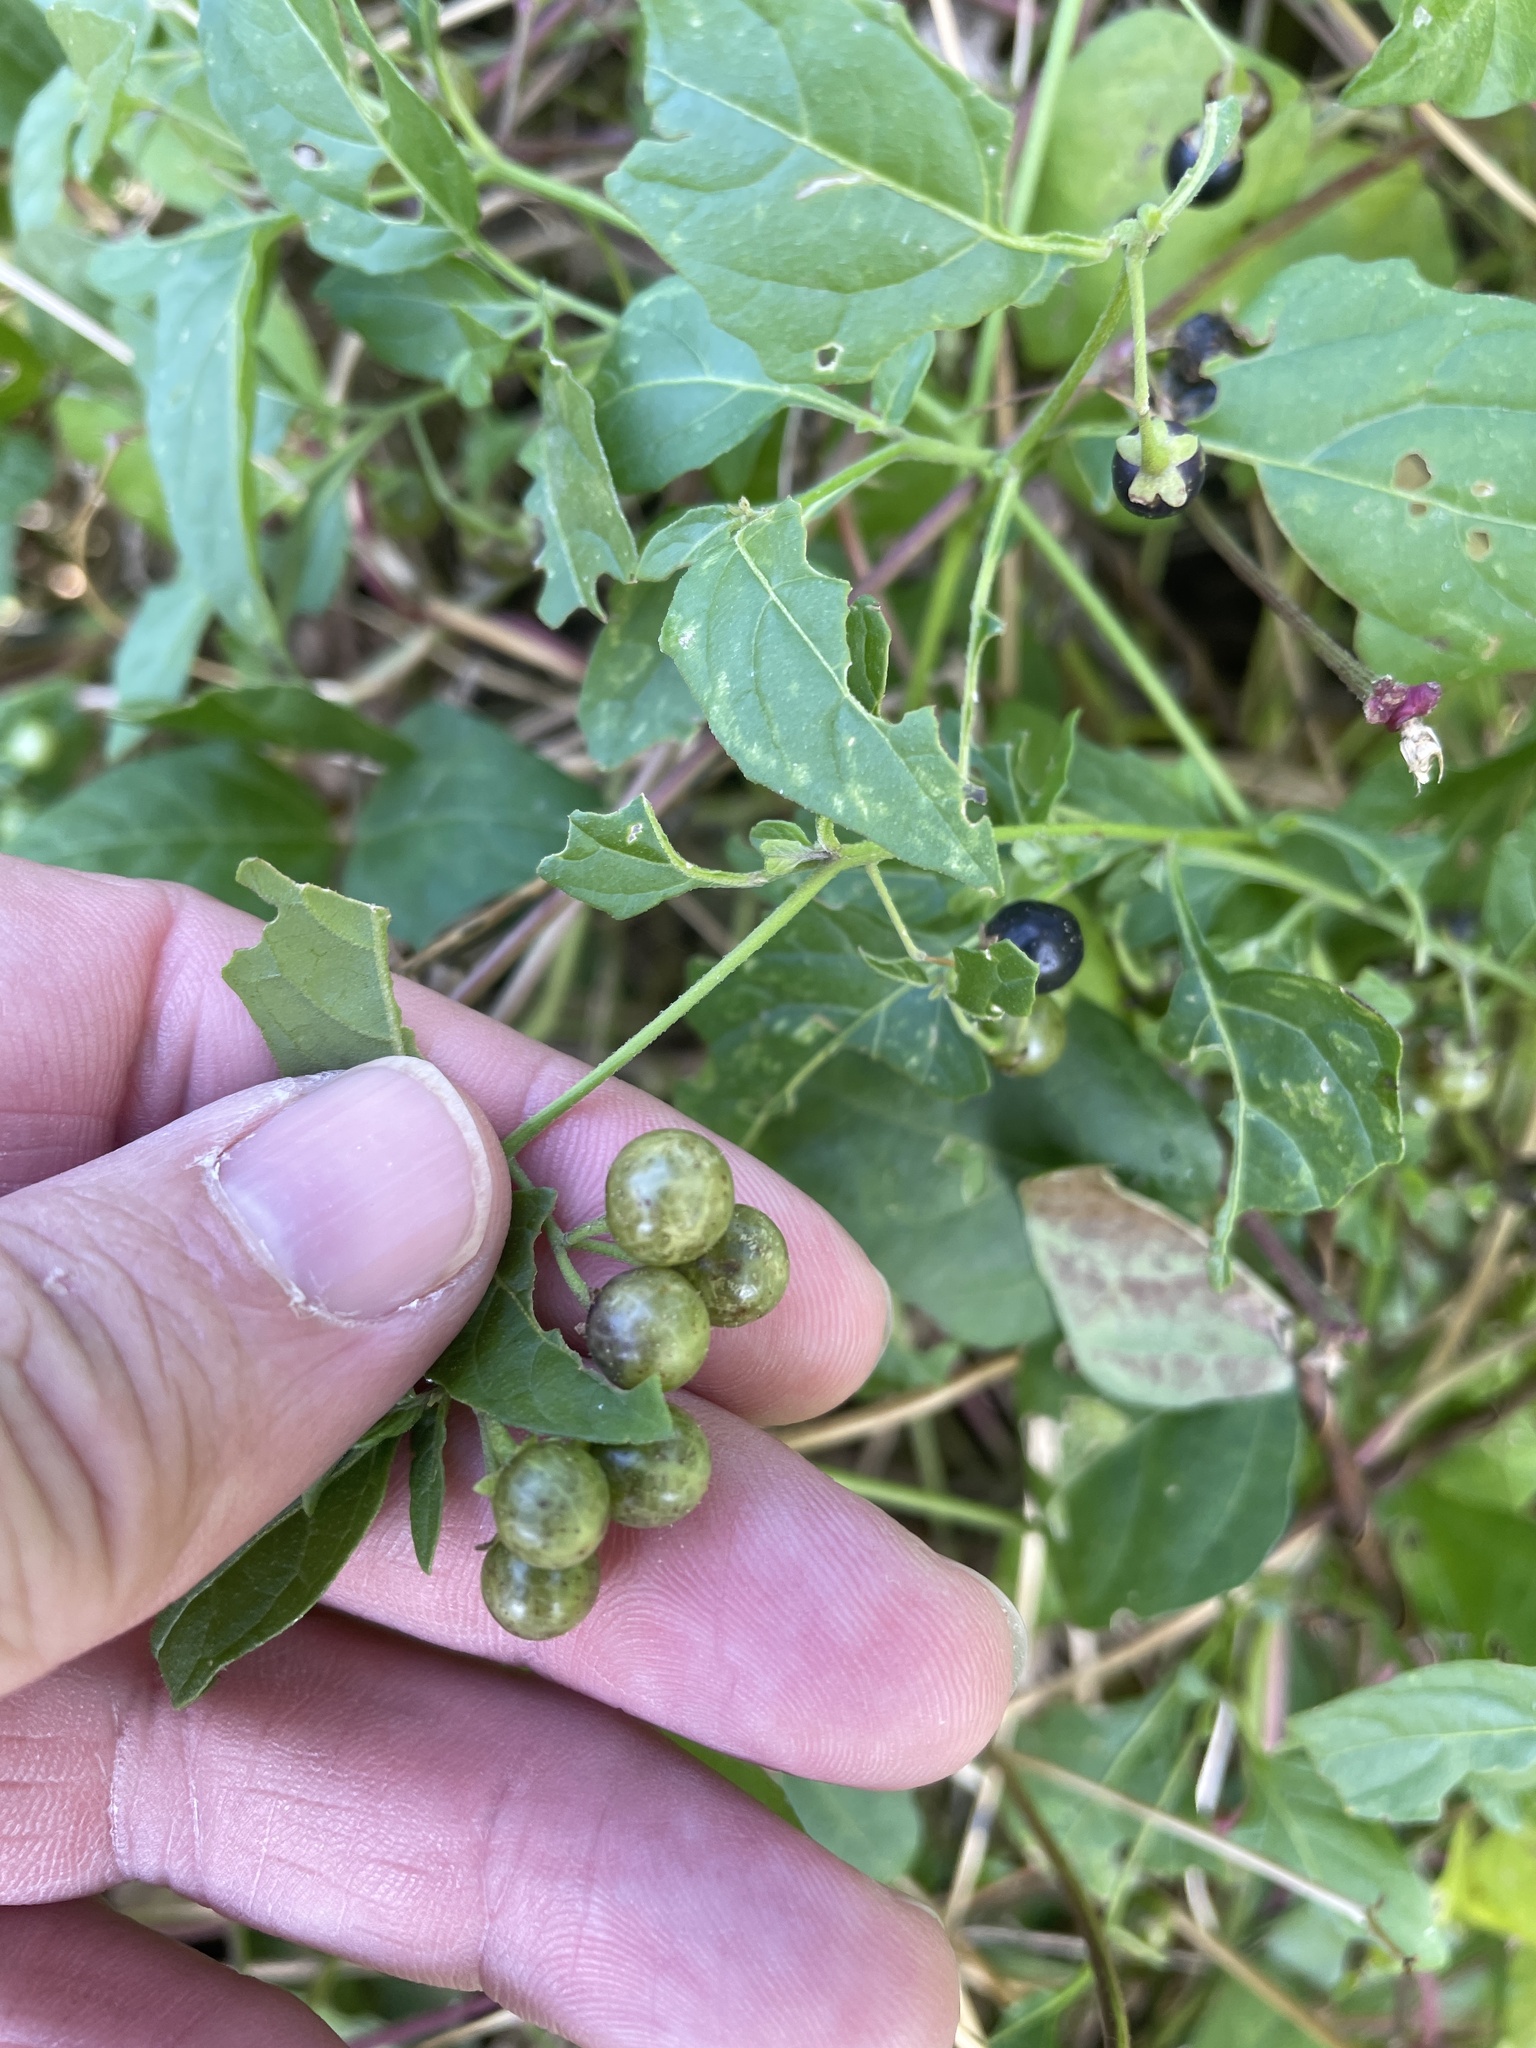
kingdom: Plantae
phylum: Tracheophyta
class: Magnoliopsida
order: Solanales
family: Solanaceae
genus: Solanum
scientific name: Solanum emulans
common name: Eastern black nightshade
